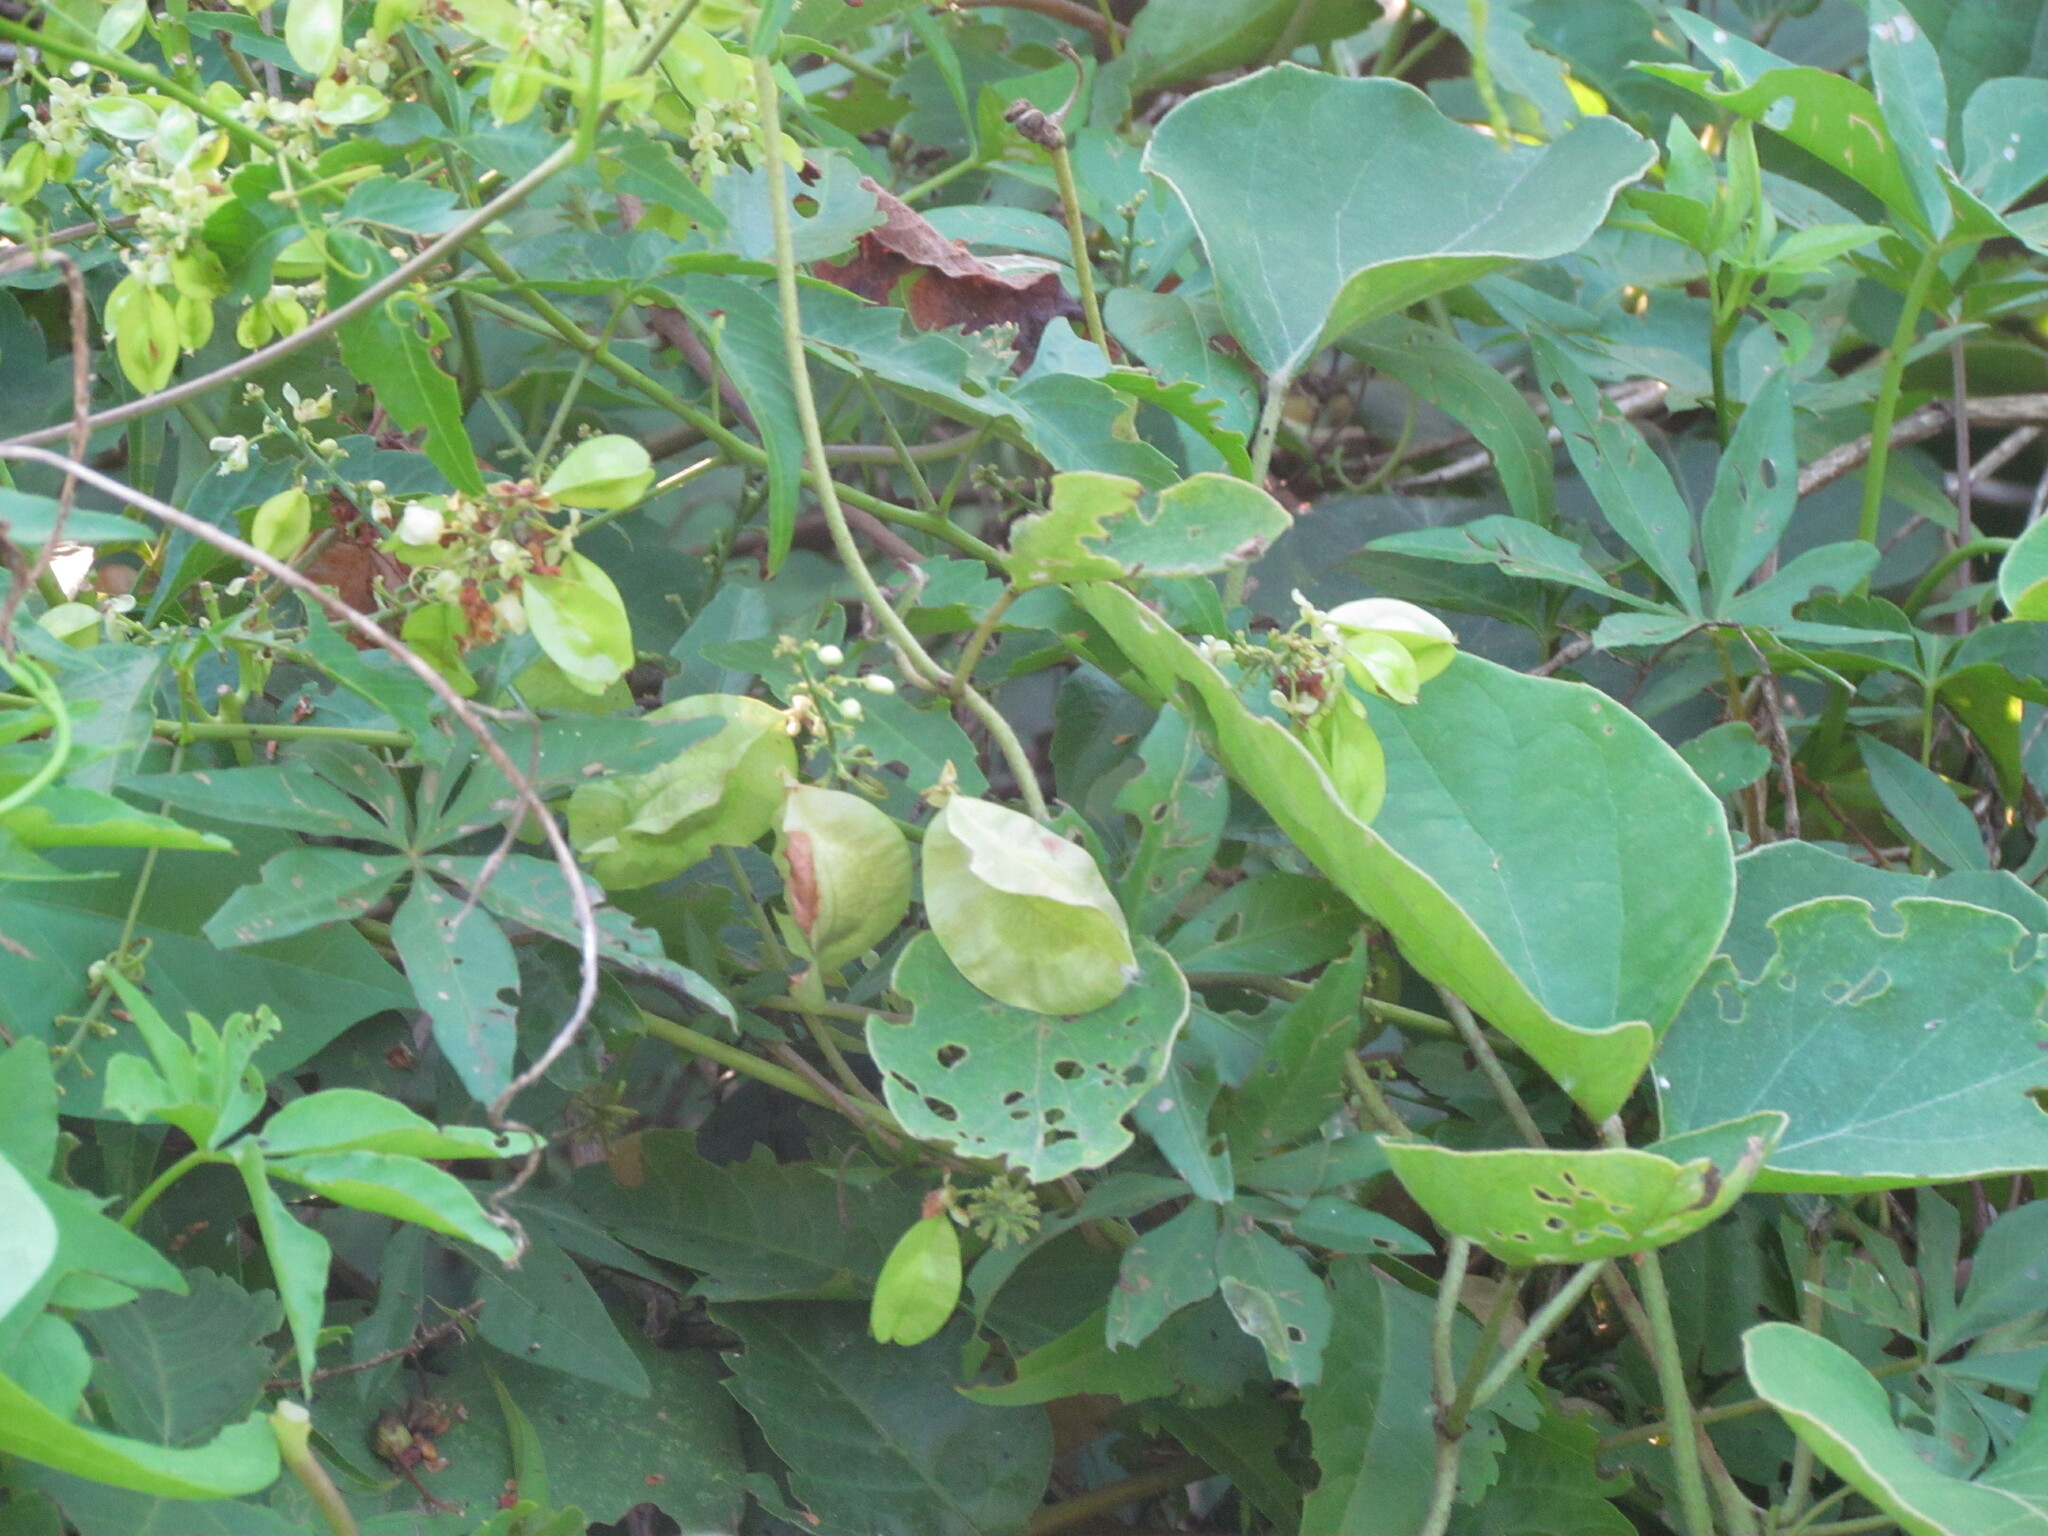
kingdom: Plantae
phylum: Tracheophyta
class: Magnoliopsida
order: Sapindales
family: Sapindaceae
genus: Urvillea
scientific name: Urvillea uniloba
